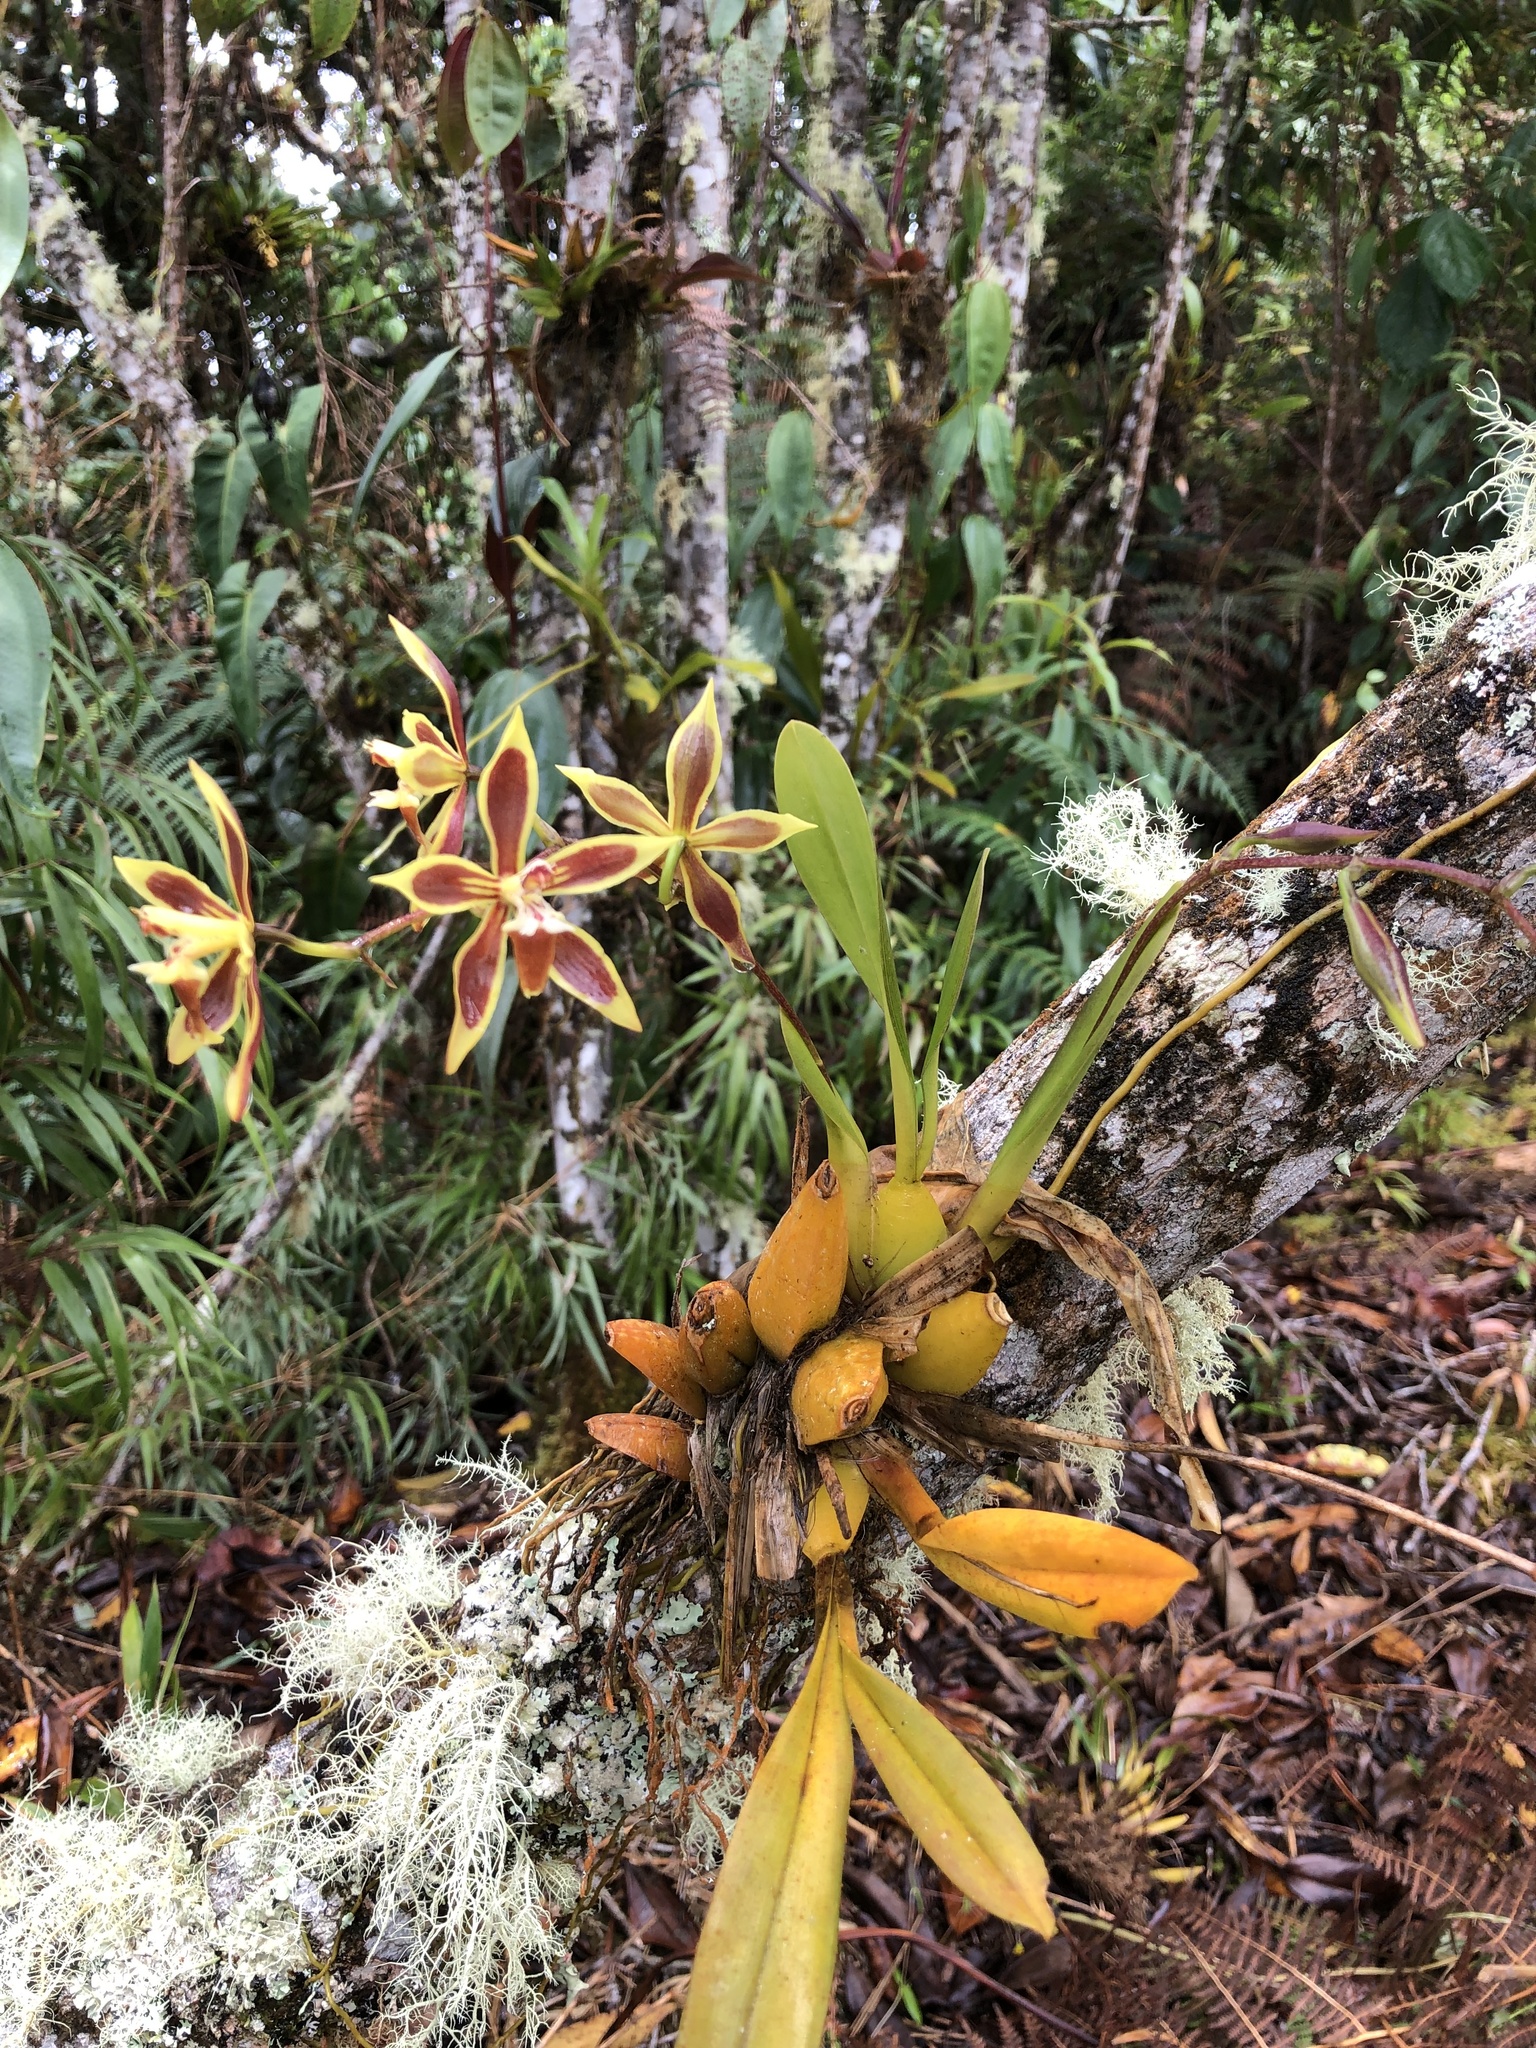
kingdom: Plantae
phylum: Tracheophyta
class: Liliopsida
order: Asparagales
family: Orchidaceae
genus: Oncidium
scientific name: Oncidium mirandum
